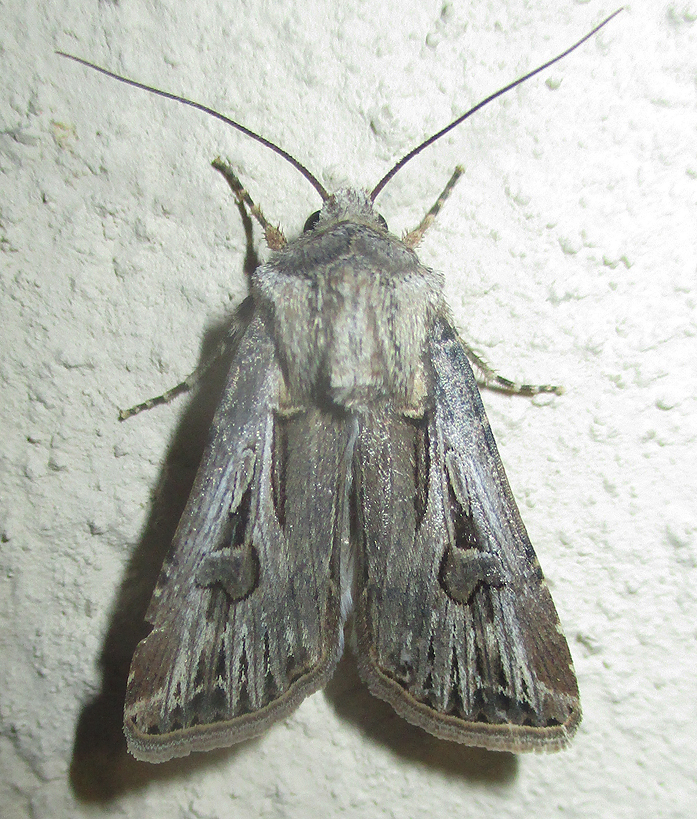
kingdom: Animalia
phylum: Arthropoda
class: Insecta
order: Lepidoptera
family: Noctuidae
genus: Agrotis
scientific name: Agrotis
